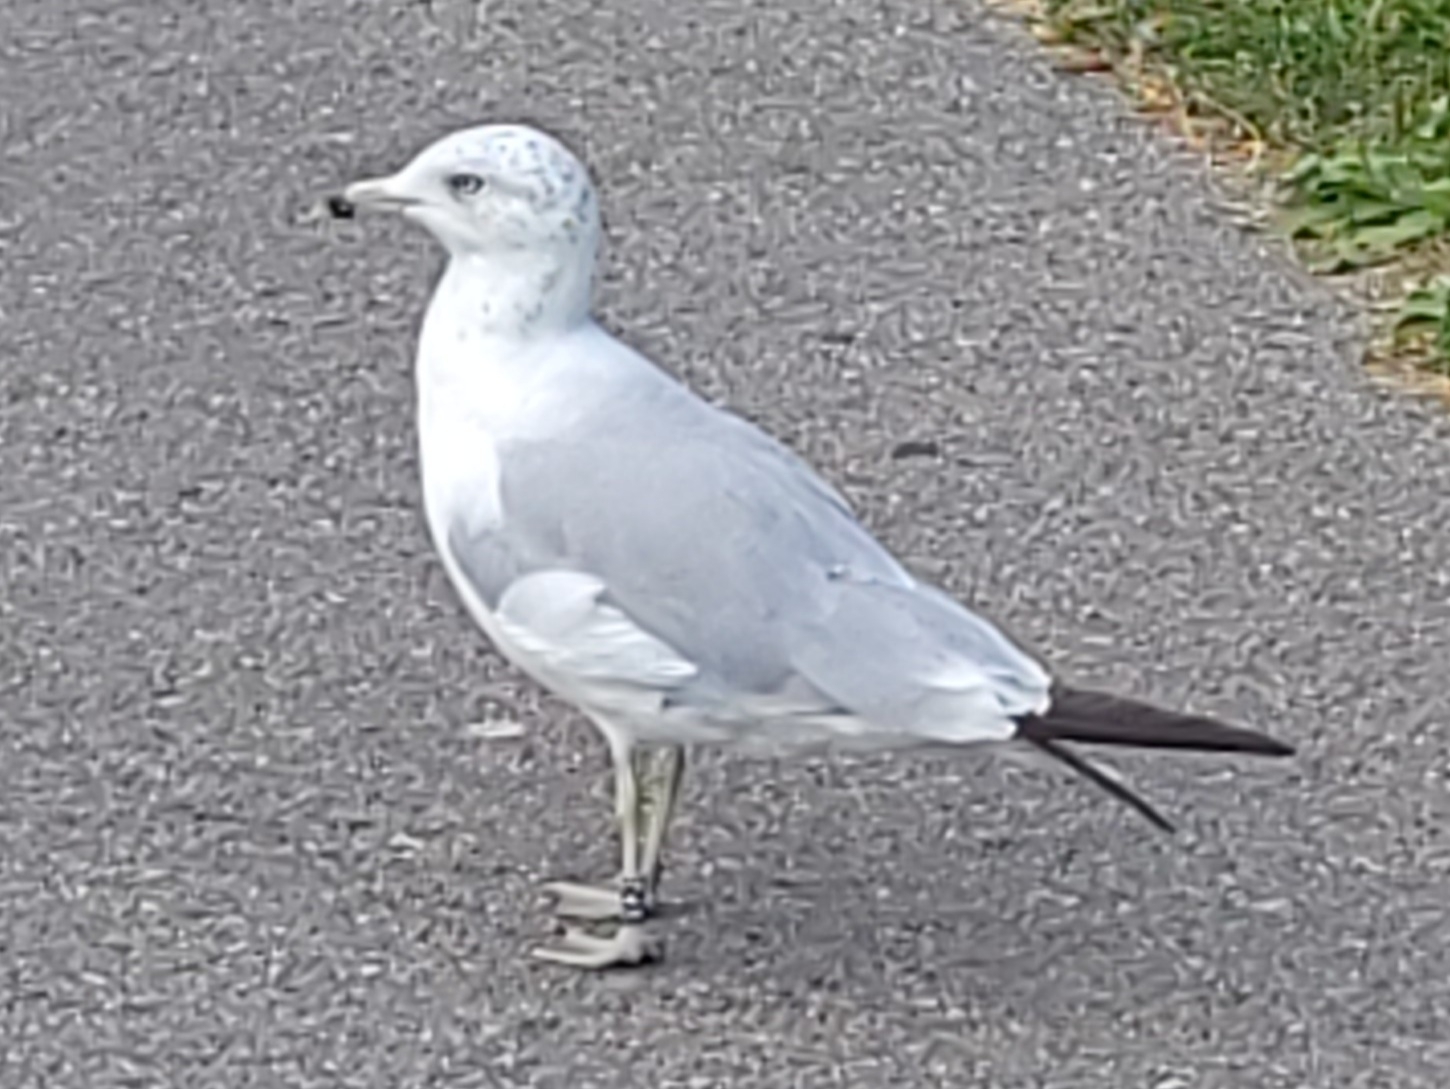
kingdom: Animalia
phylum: Chordata
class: Aves
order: Charadriiformes
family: Laridae
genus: Larus
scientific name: Larus delawarensis
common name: Ring-billed gull
